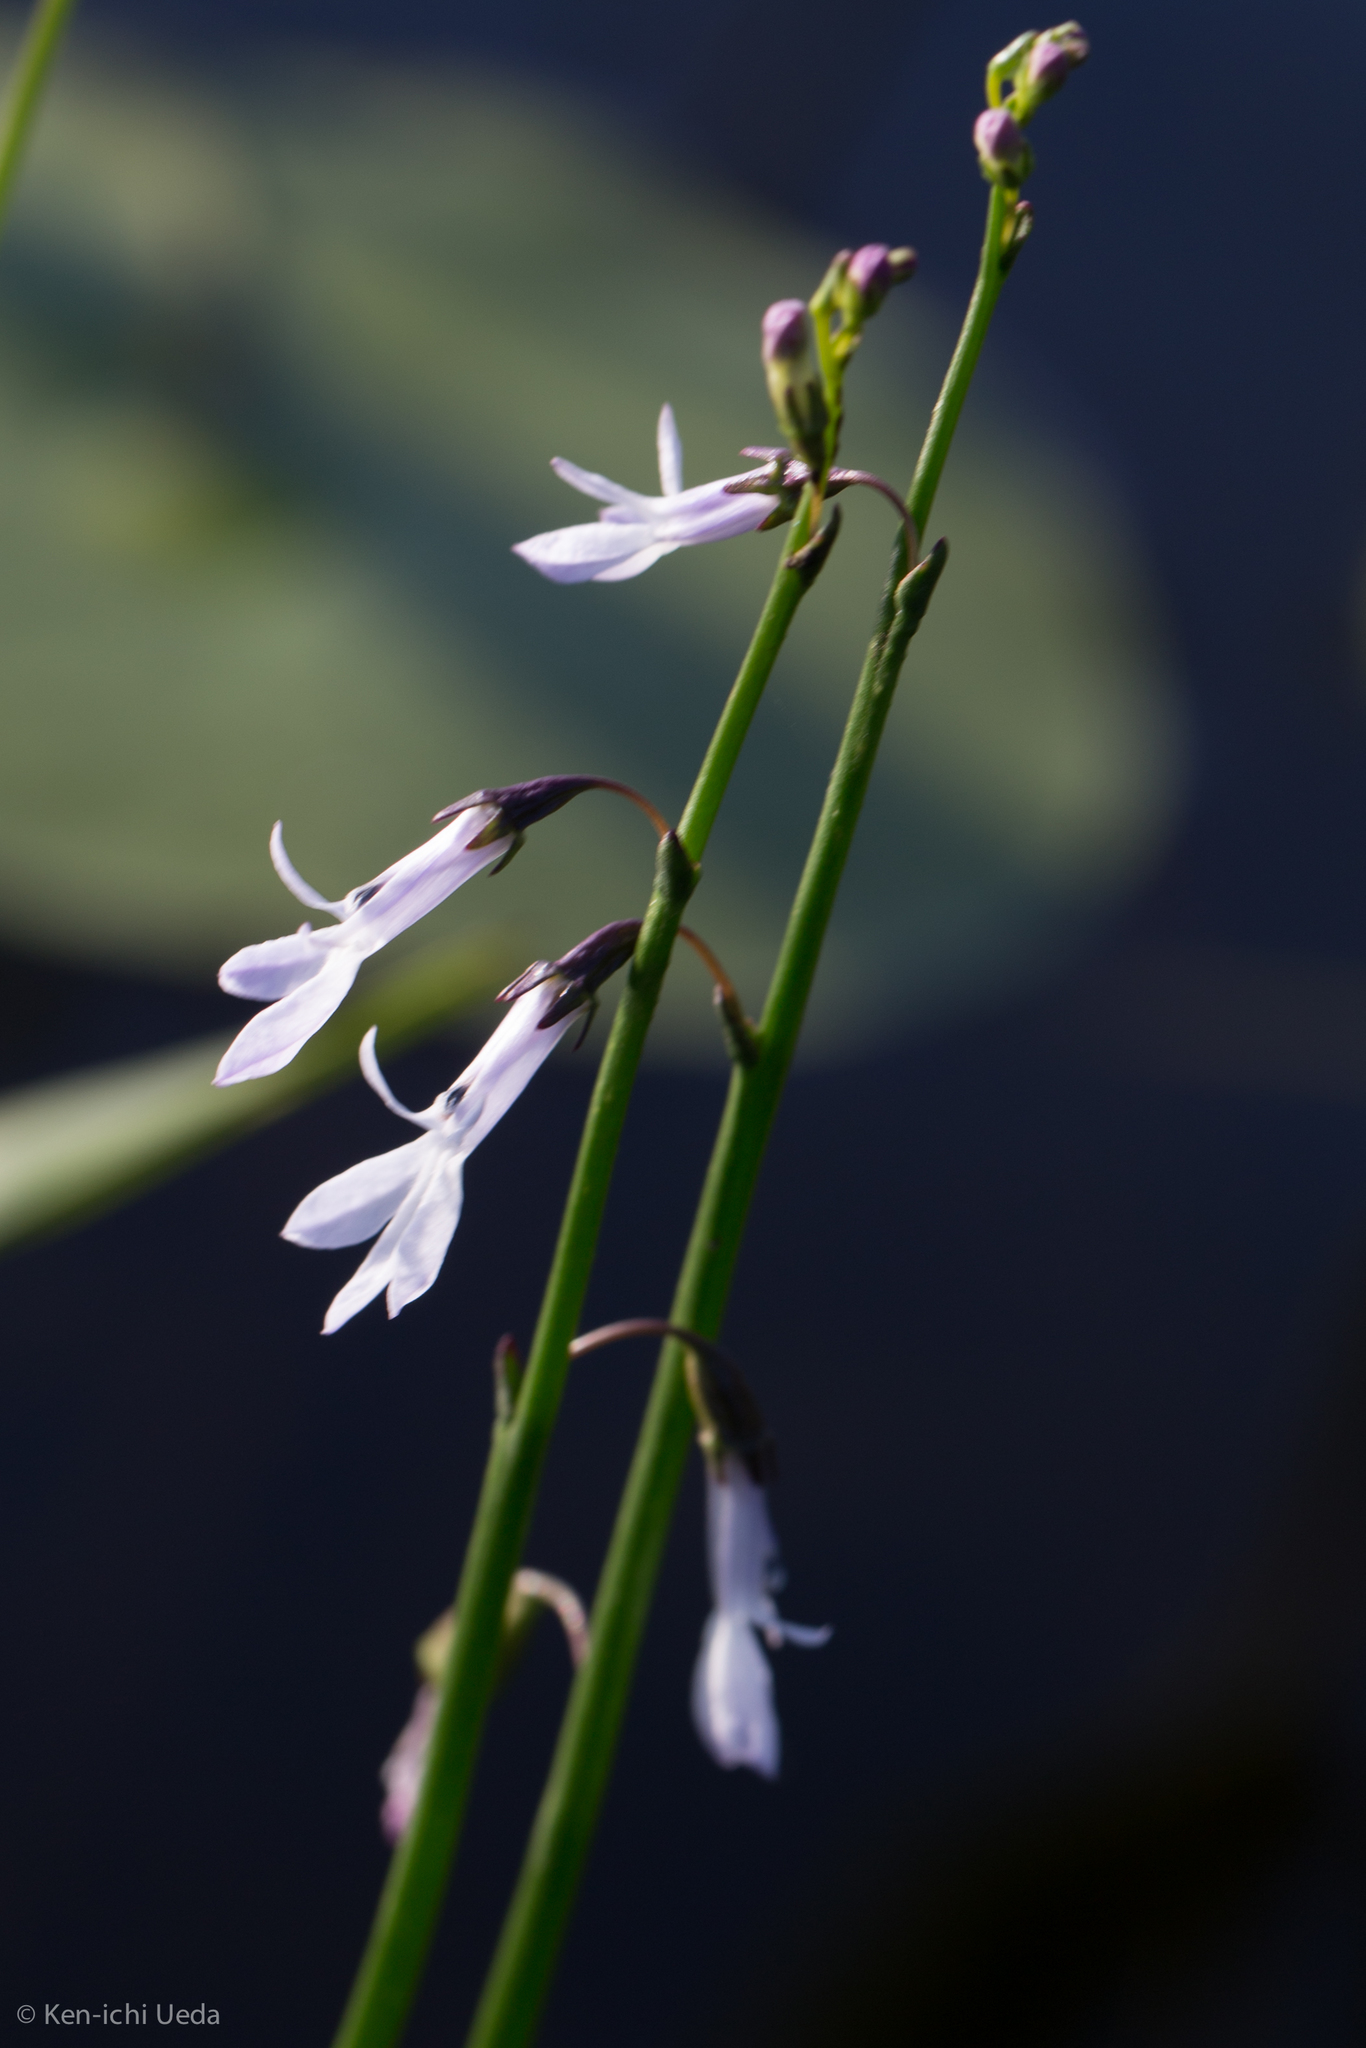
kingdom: Plantae
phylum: Tracheophyta
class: Magnoliopsida
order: Asterales
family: Campanulaceae
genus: Lobelia
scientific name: Lobelia dortmanna
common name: Water lobelia
